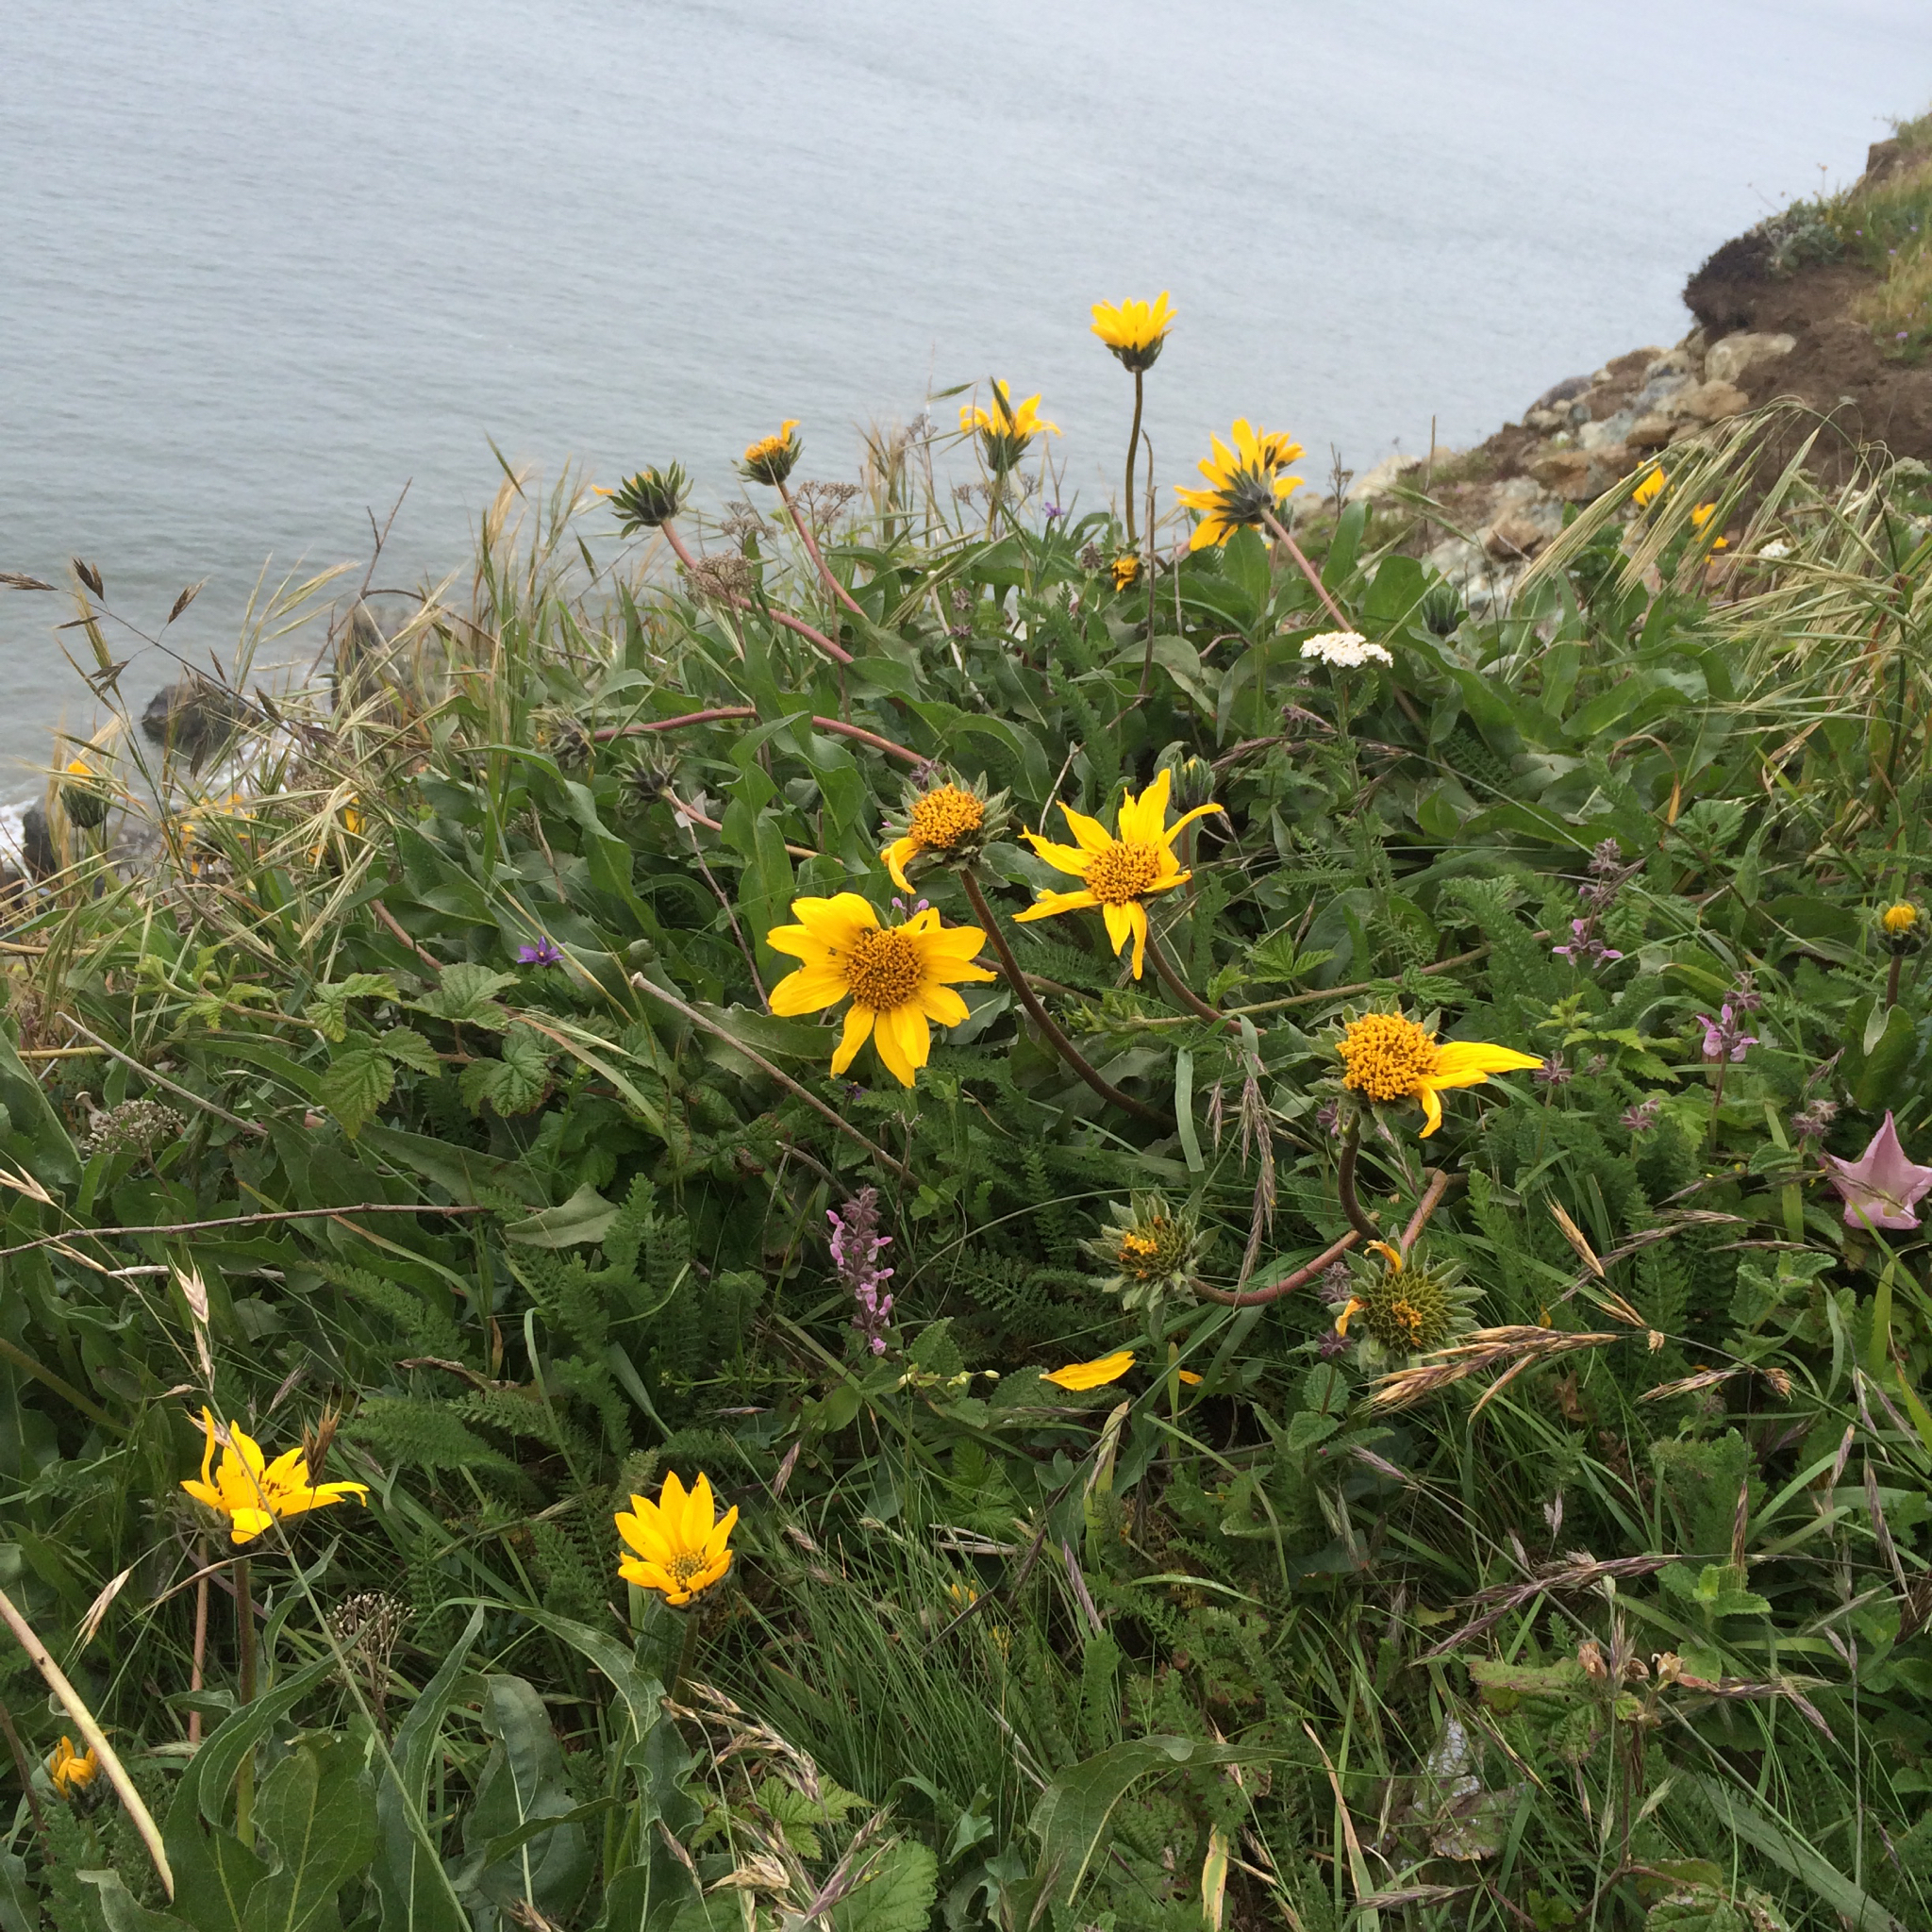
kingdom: Plantae
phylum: Tracheophyta
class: Magnoliopsida
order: Asterales
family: Asteraceae
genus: Wyethia
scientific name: Wyethia angustifolia
